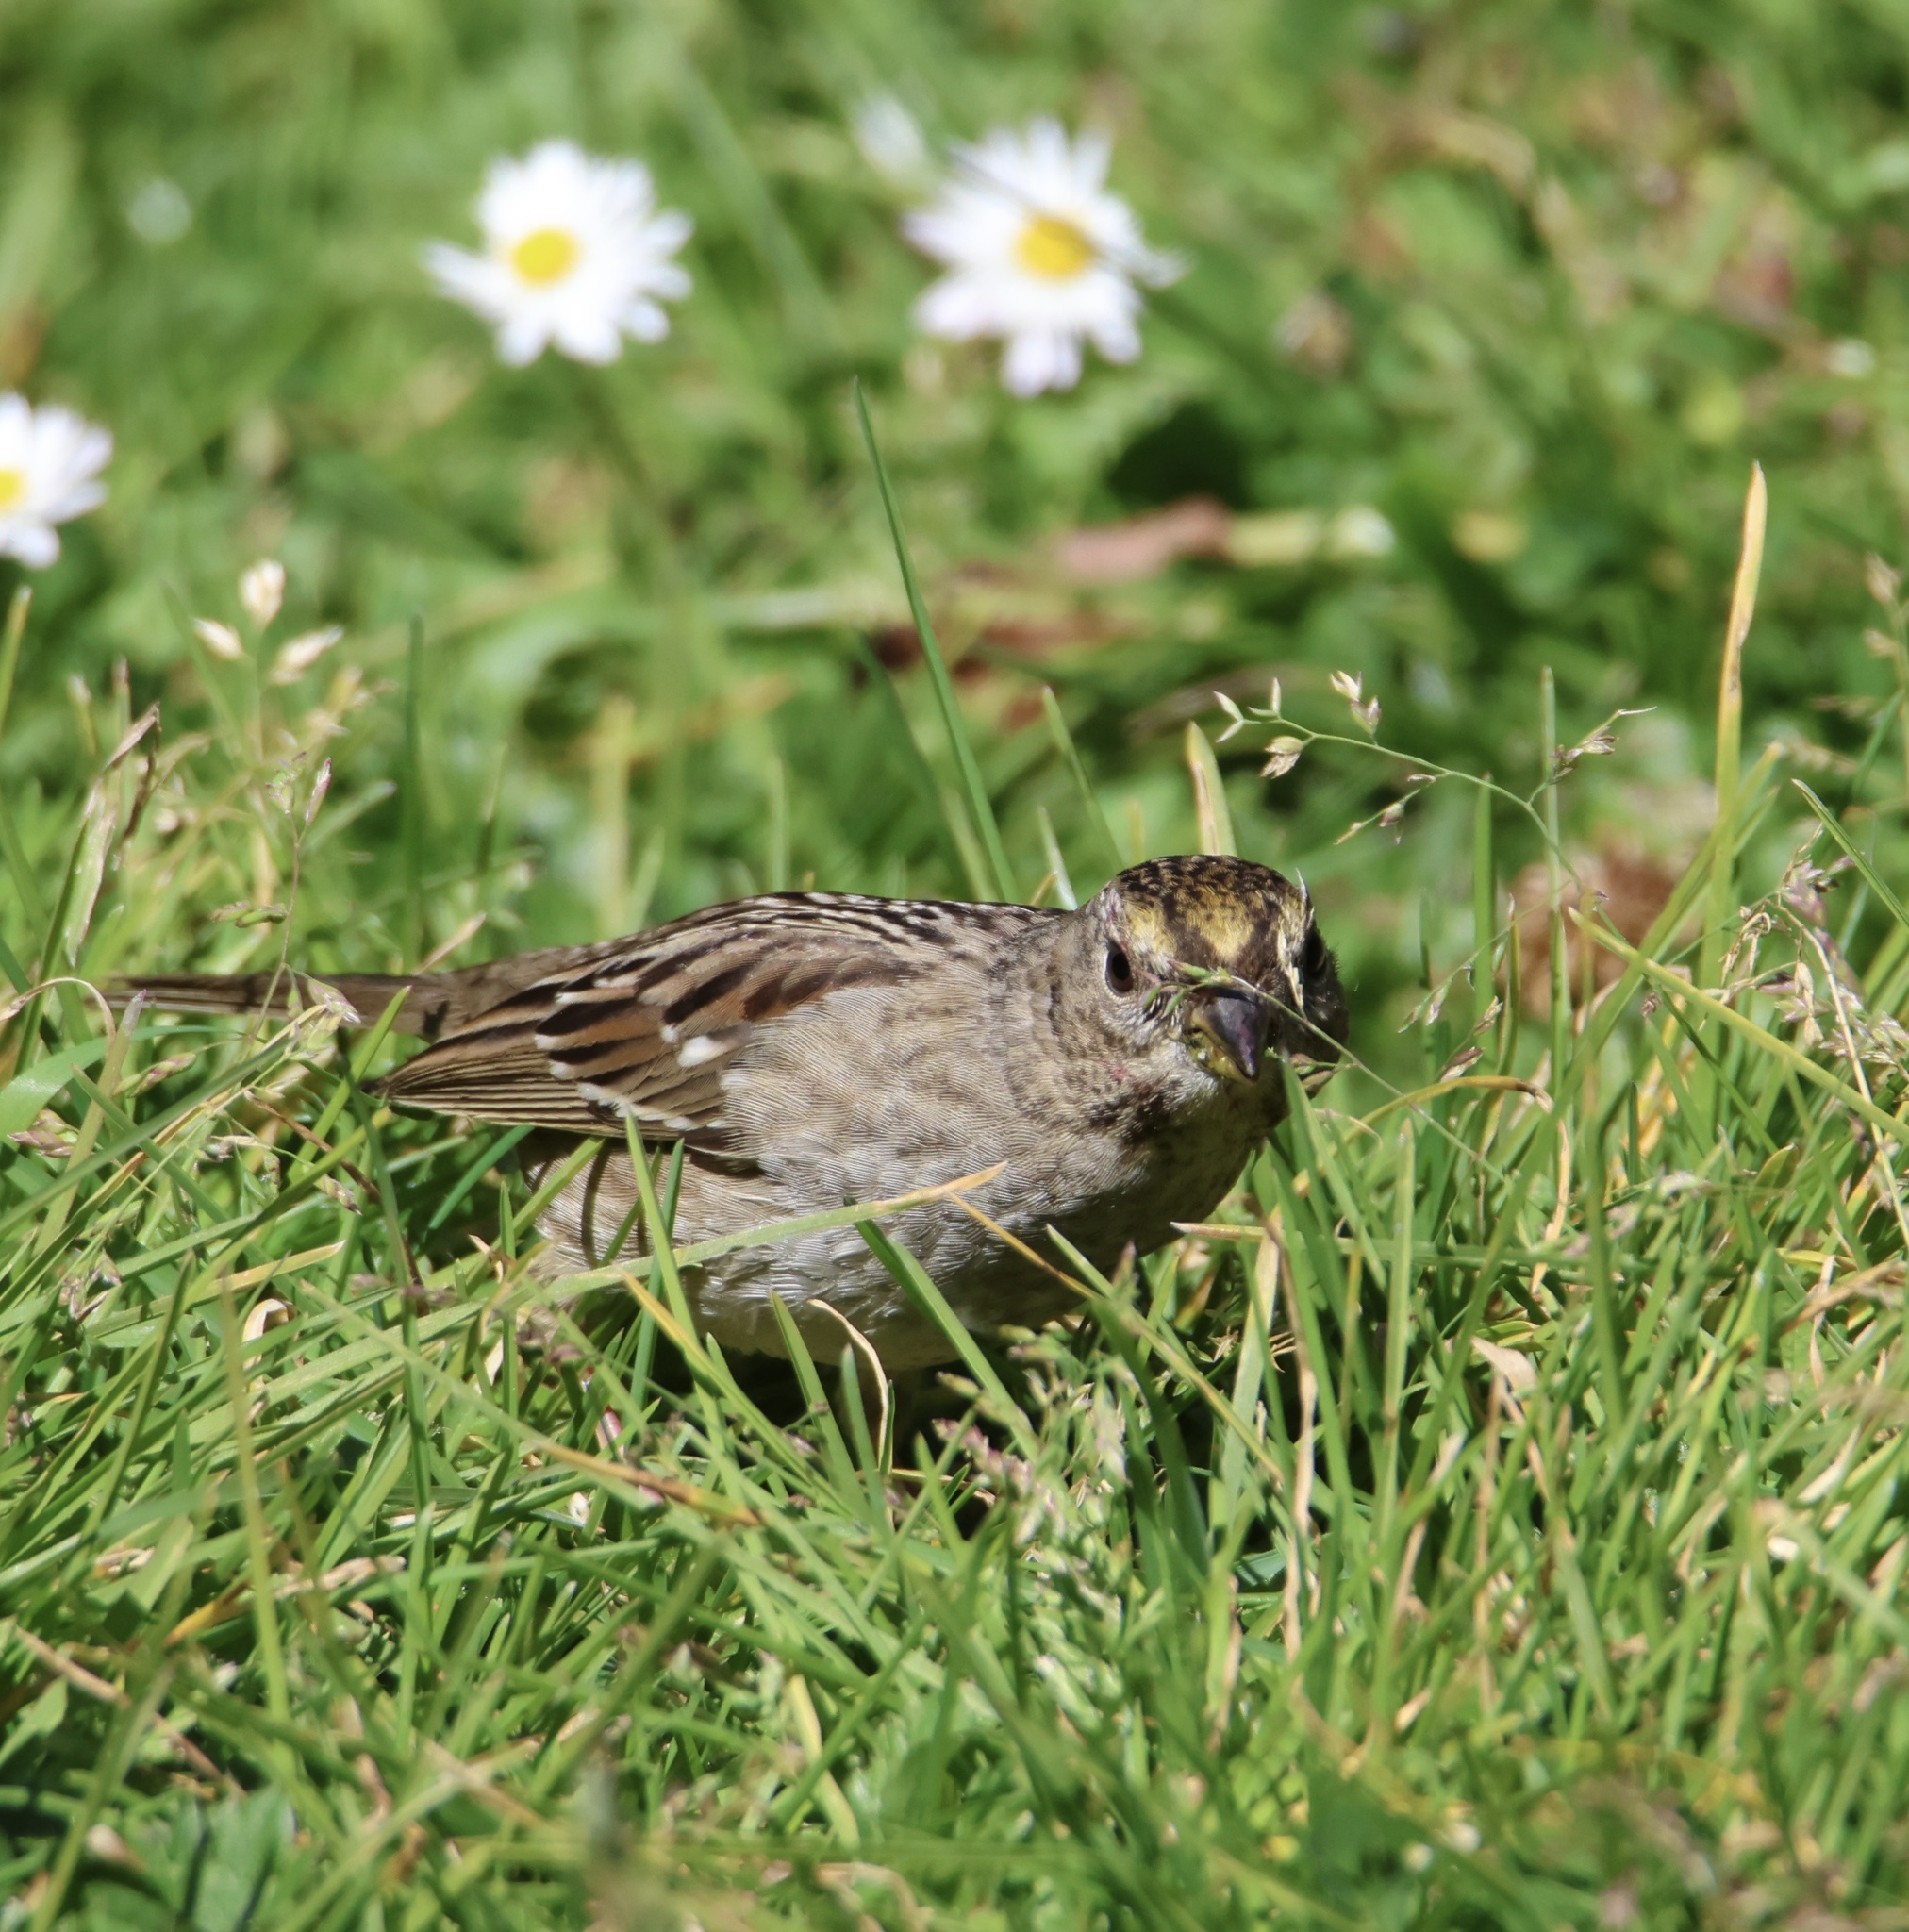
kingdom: Animalia
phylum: Chordata
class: Aves
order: Passeriformes
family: Passerellidae
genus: Zonotrichia
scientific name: Zonotrichia atricapilla
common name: Golden-crowned sparrow
